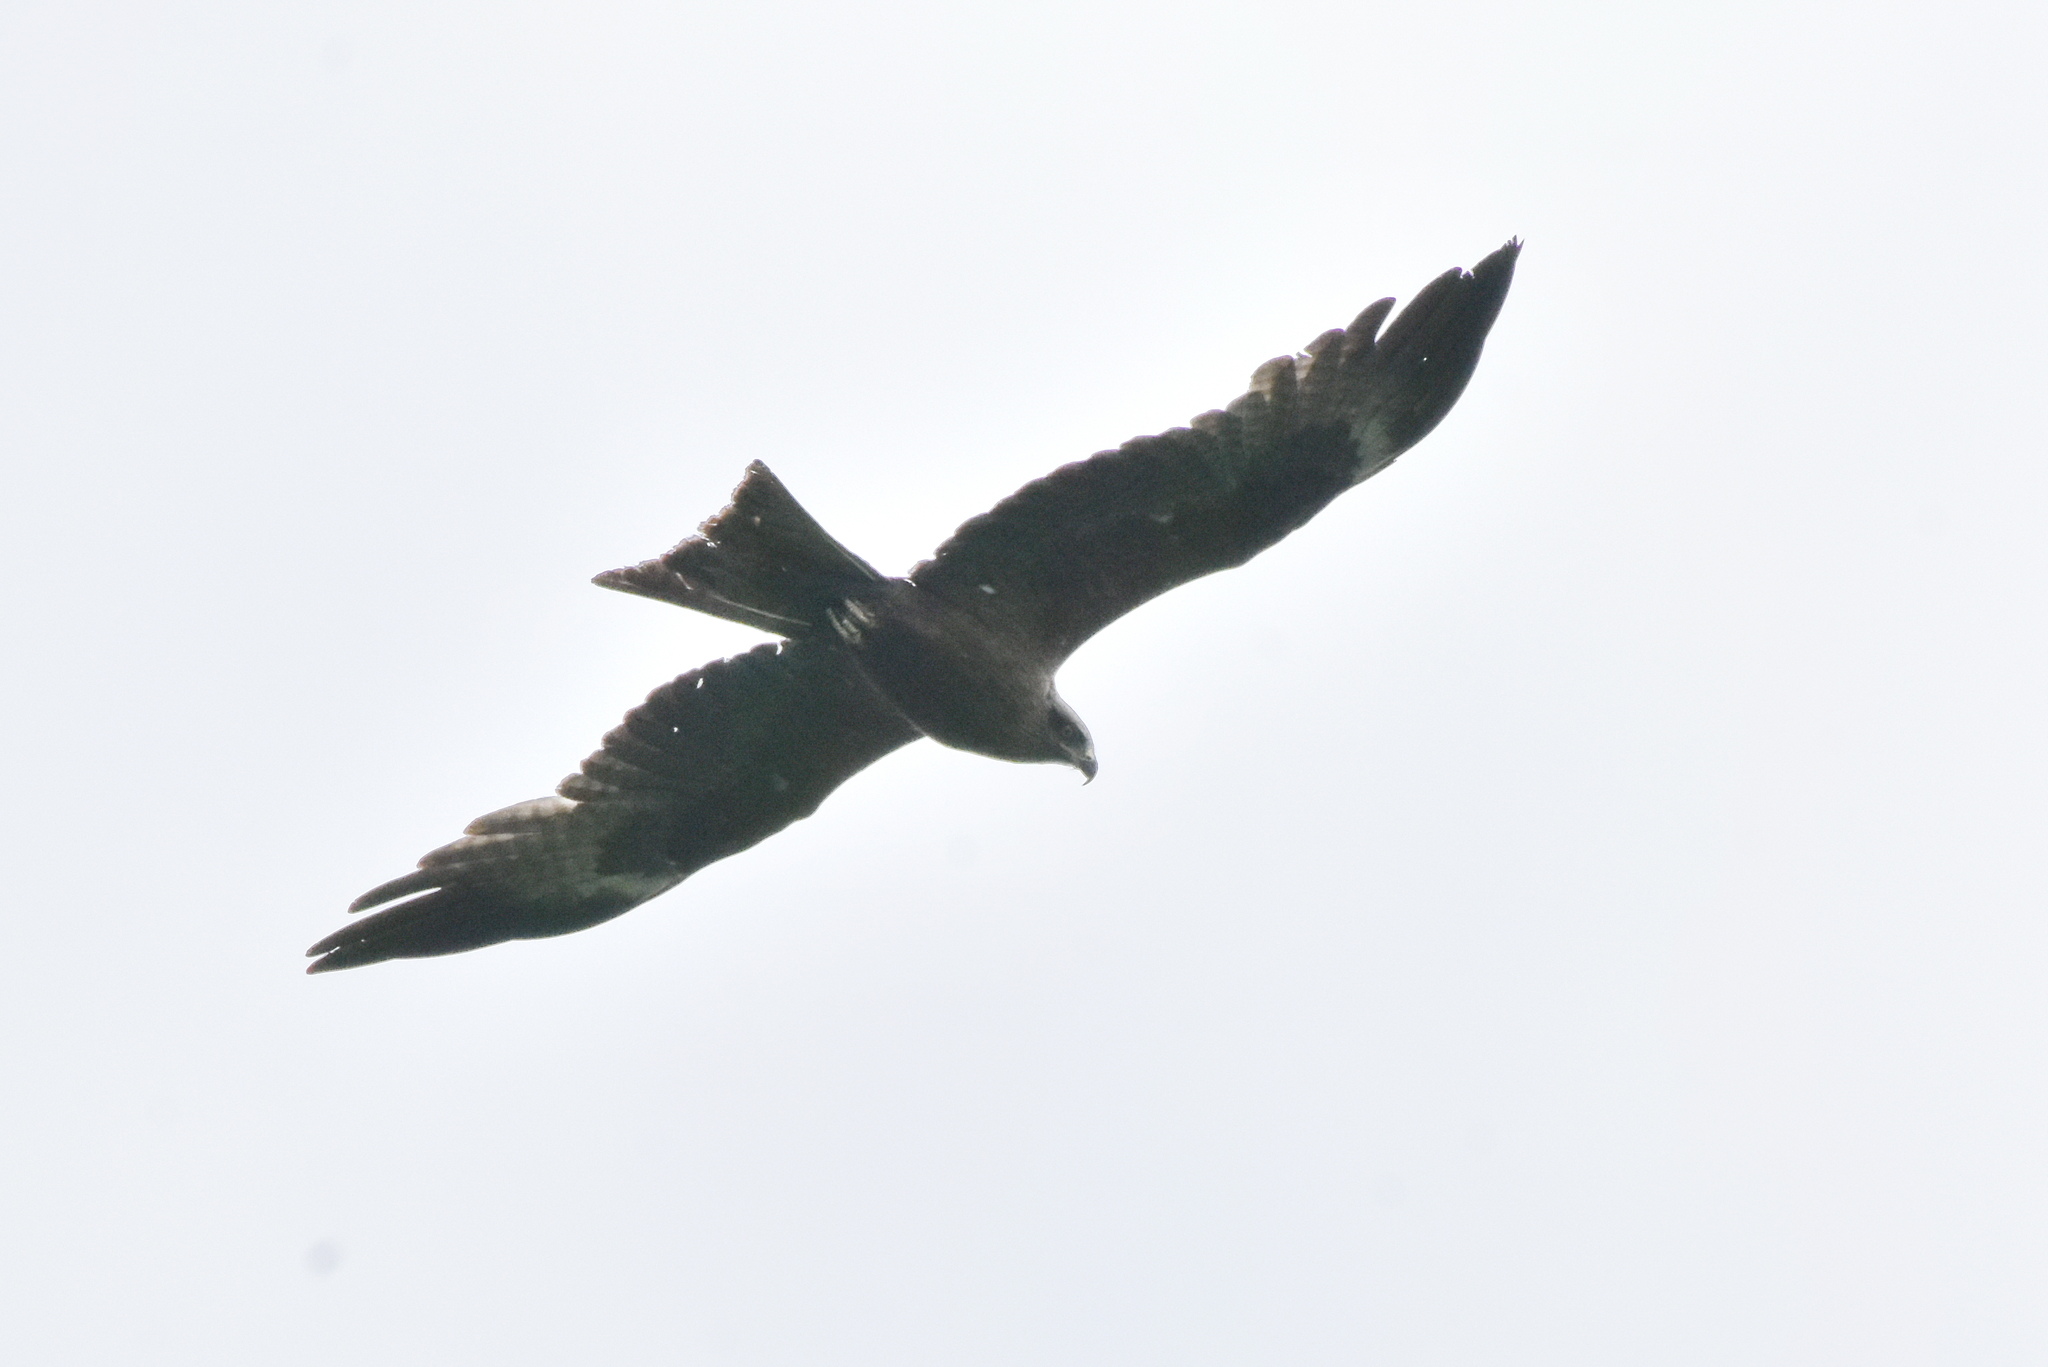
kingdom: Animalia
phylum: Chordata
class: Aves
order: Accipitriformes
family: Accipitridae
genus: Milvus
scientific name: Milvus migrans
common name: Black kite
